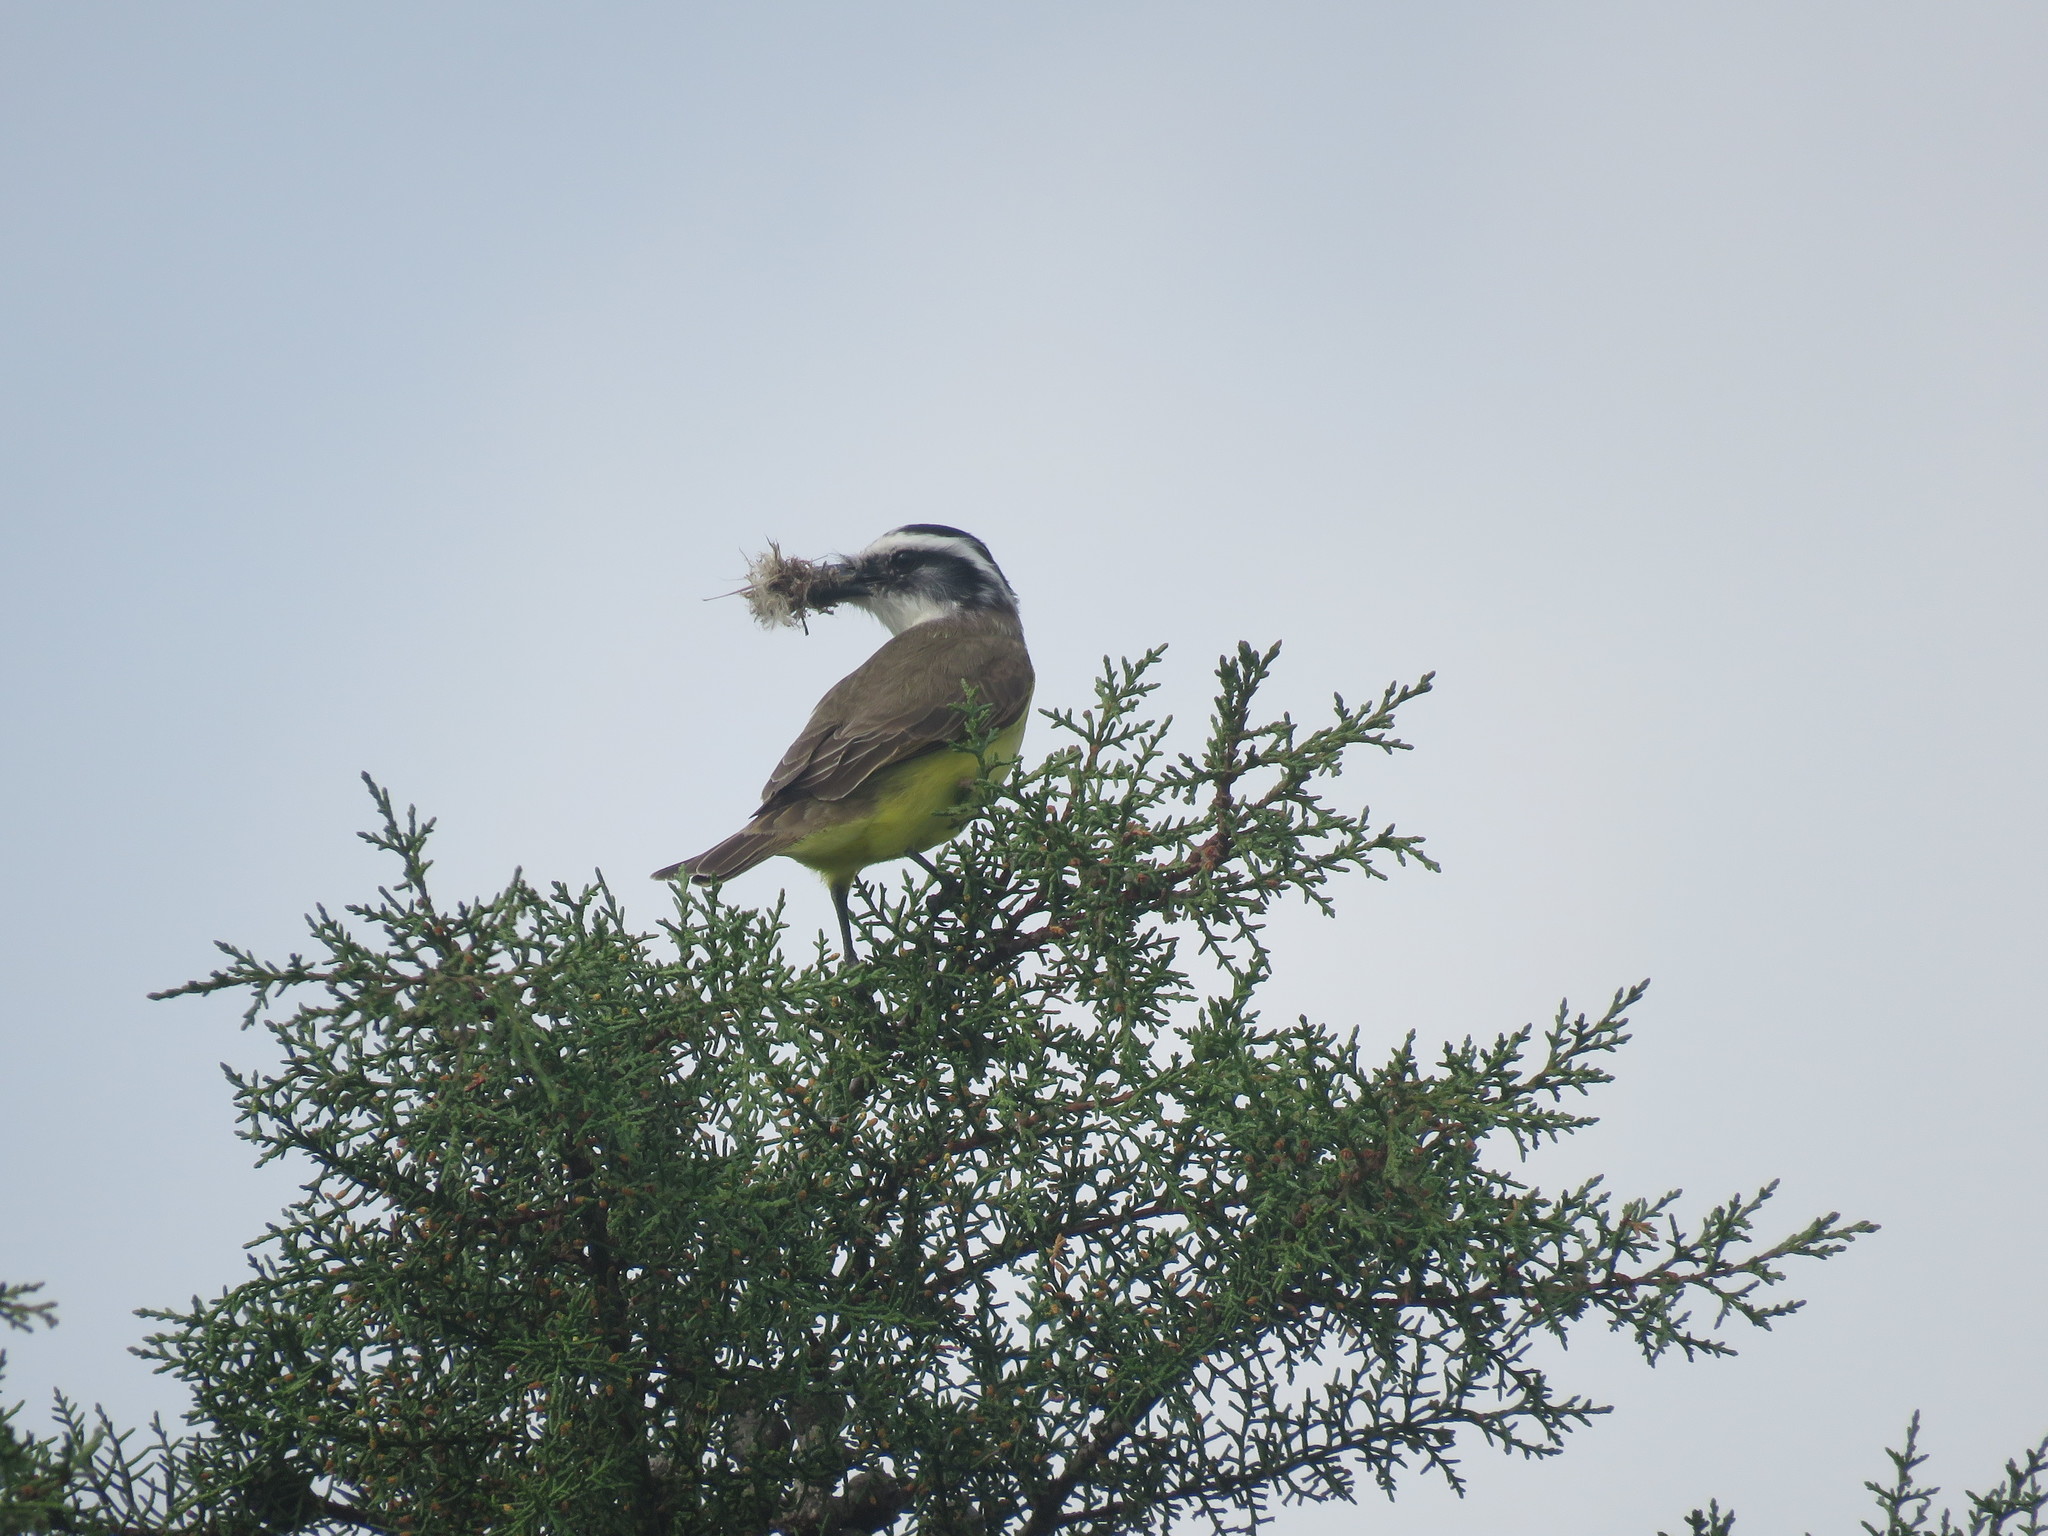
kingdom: Animalia
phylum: Chordata
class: Aves
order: Passeriformes
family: Tyrannidae
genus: Pitangus
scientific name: Pitangus sulphuratus
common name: Great kiskadee
